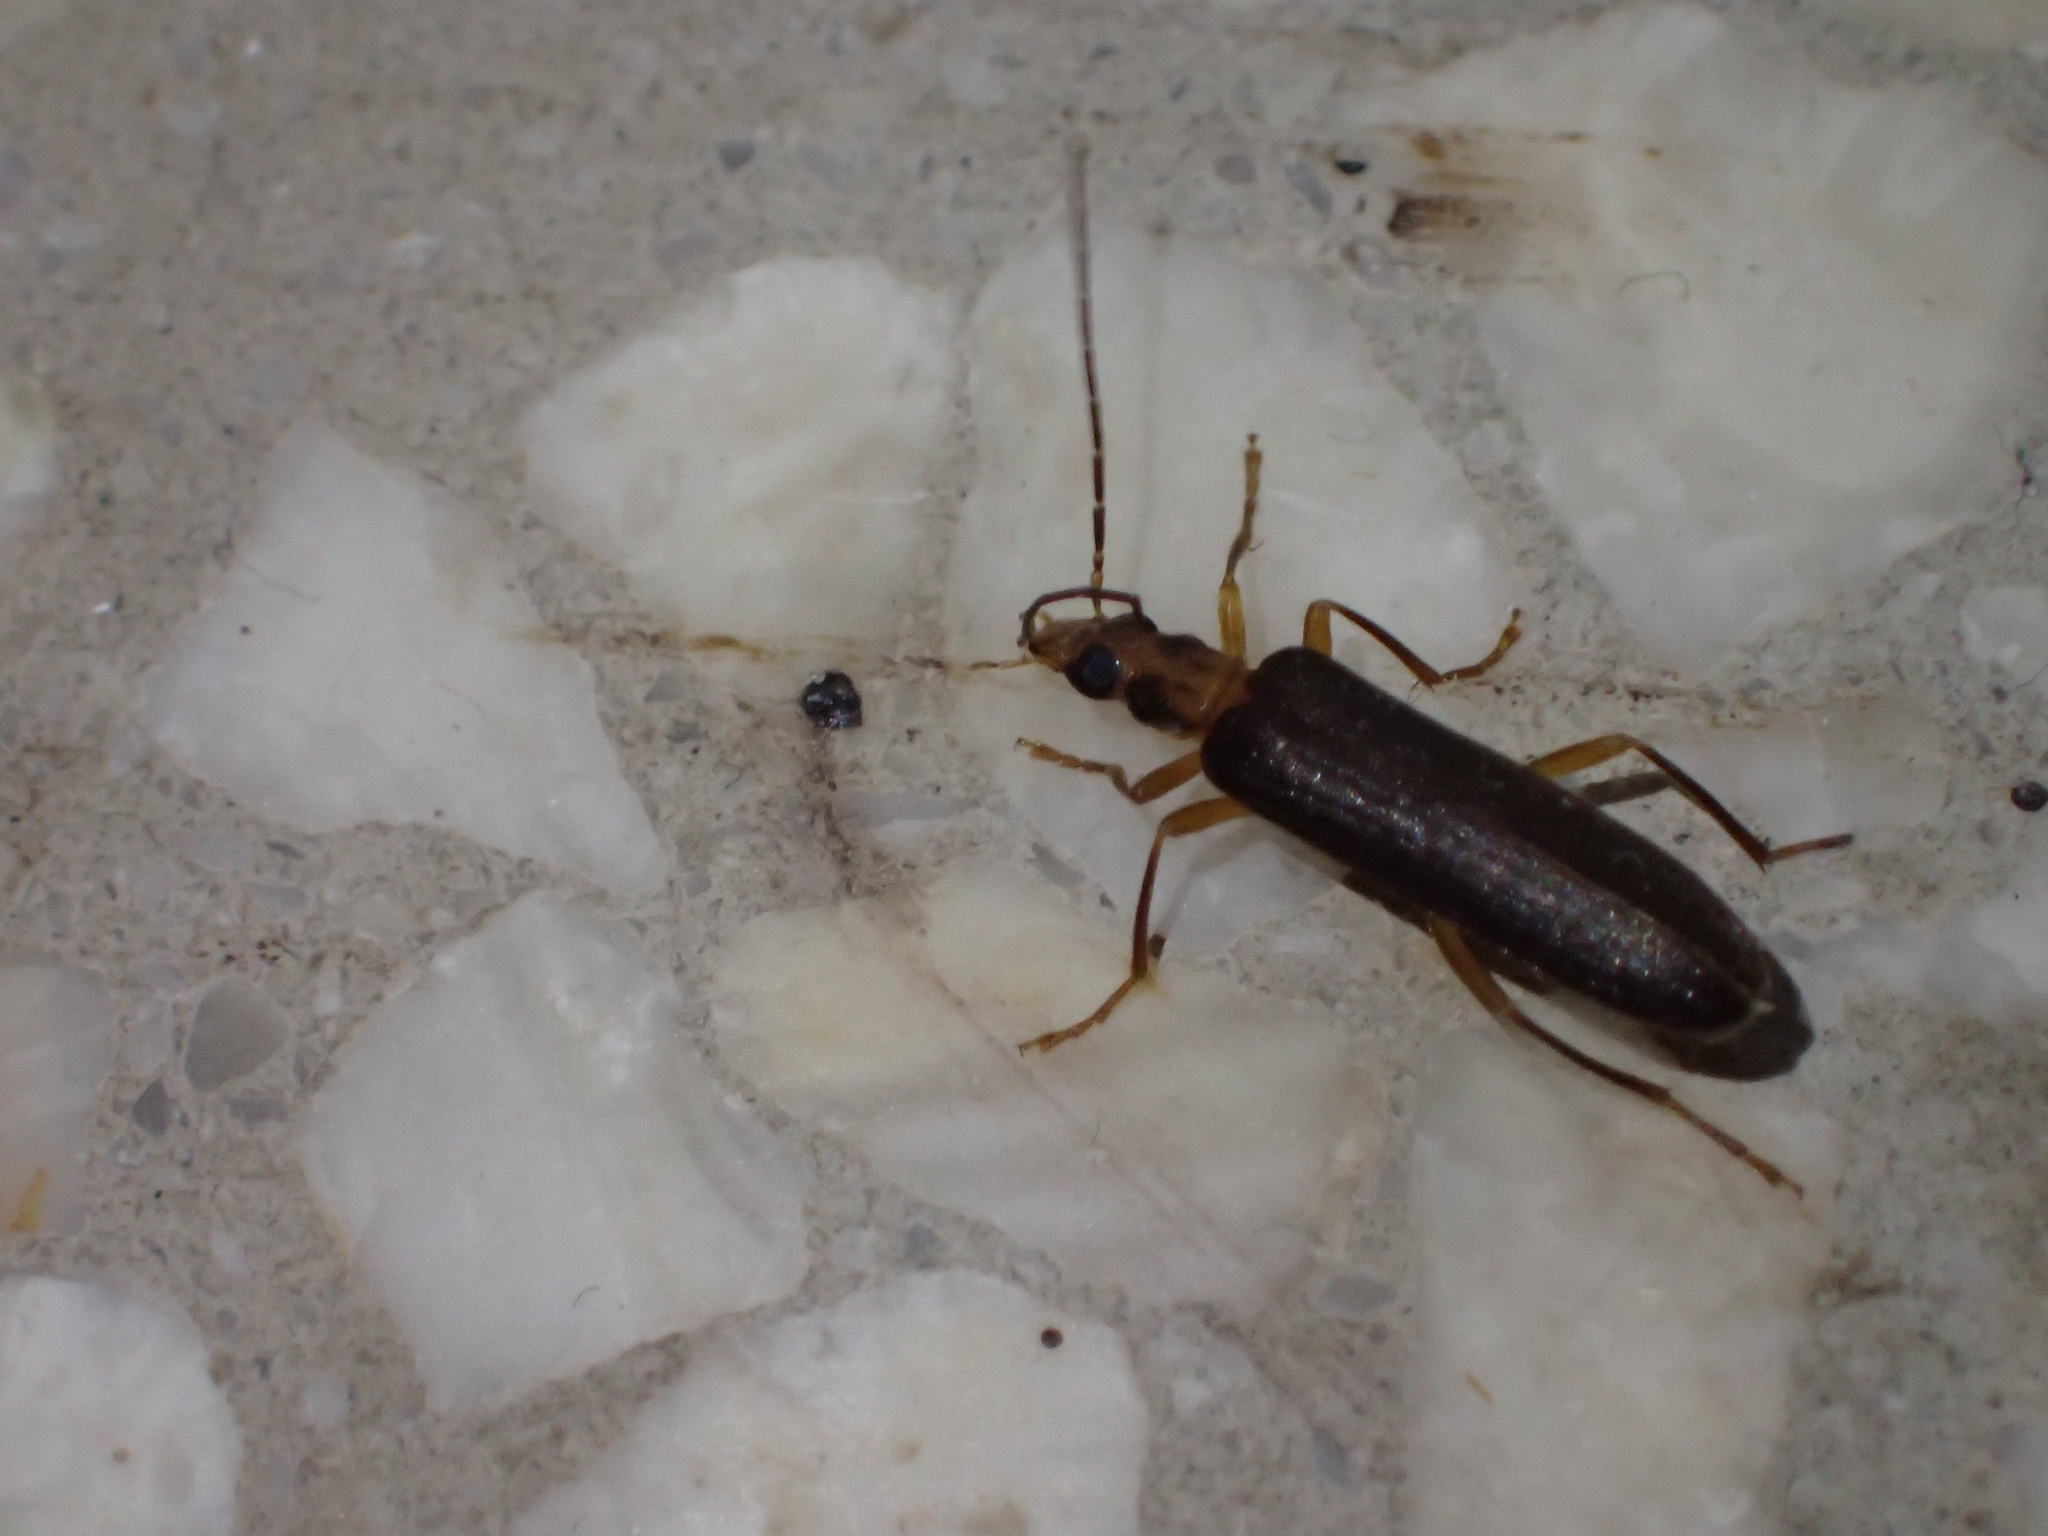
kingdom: Animalia
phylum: Arthropoda
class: Insecta
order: Coleoptera
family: Oedemeridae
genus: Nacerdes
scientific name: Nacerdes carniolica
